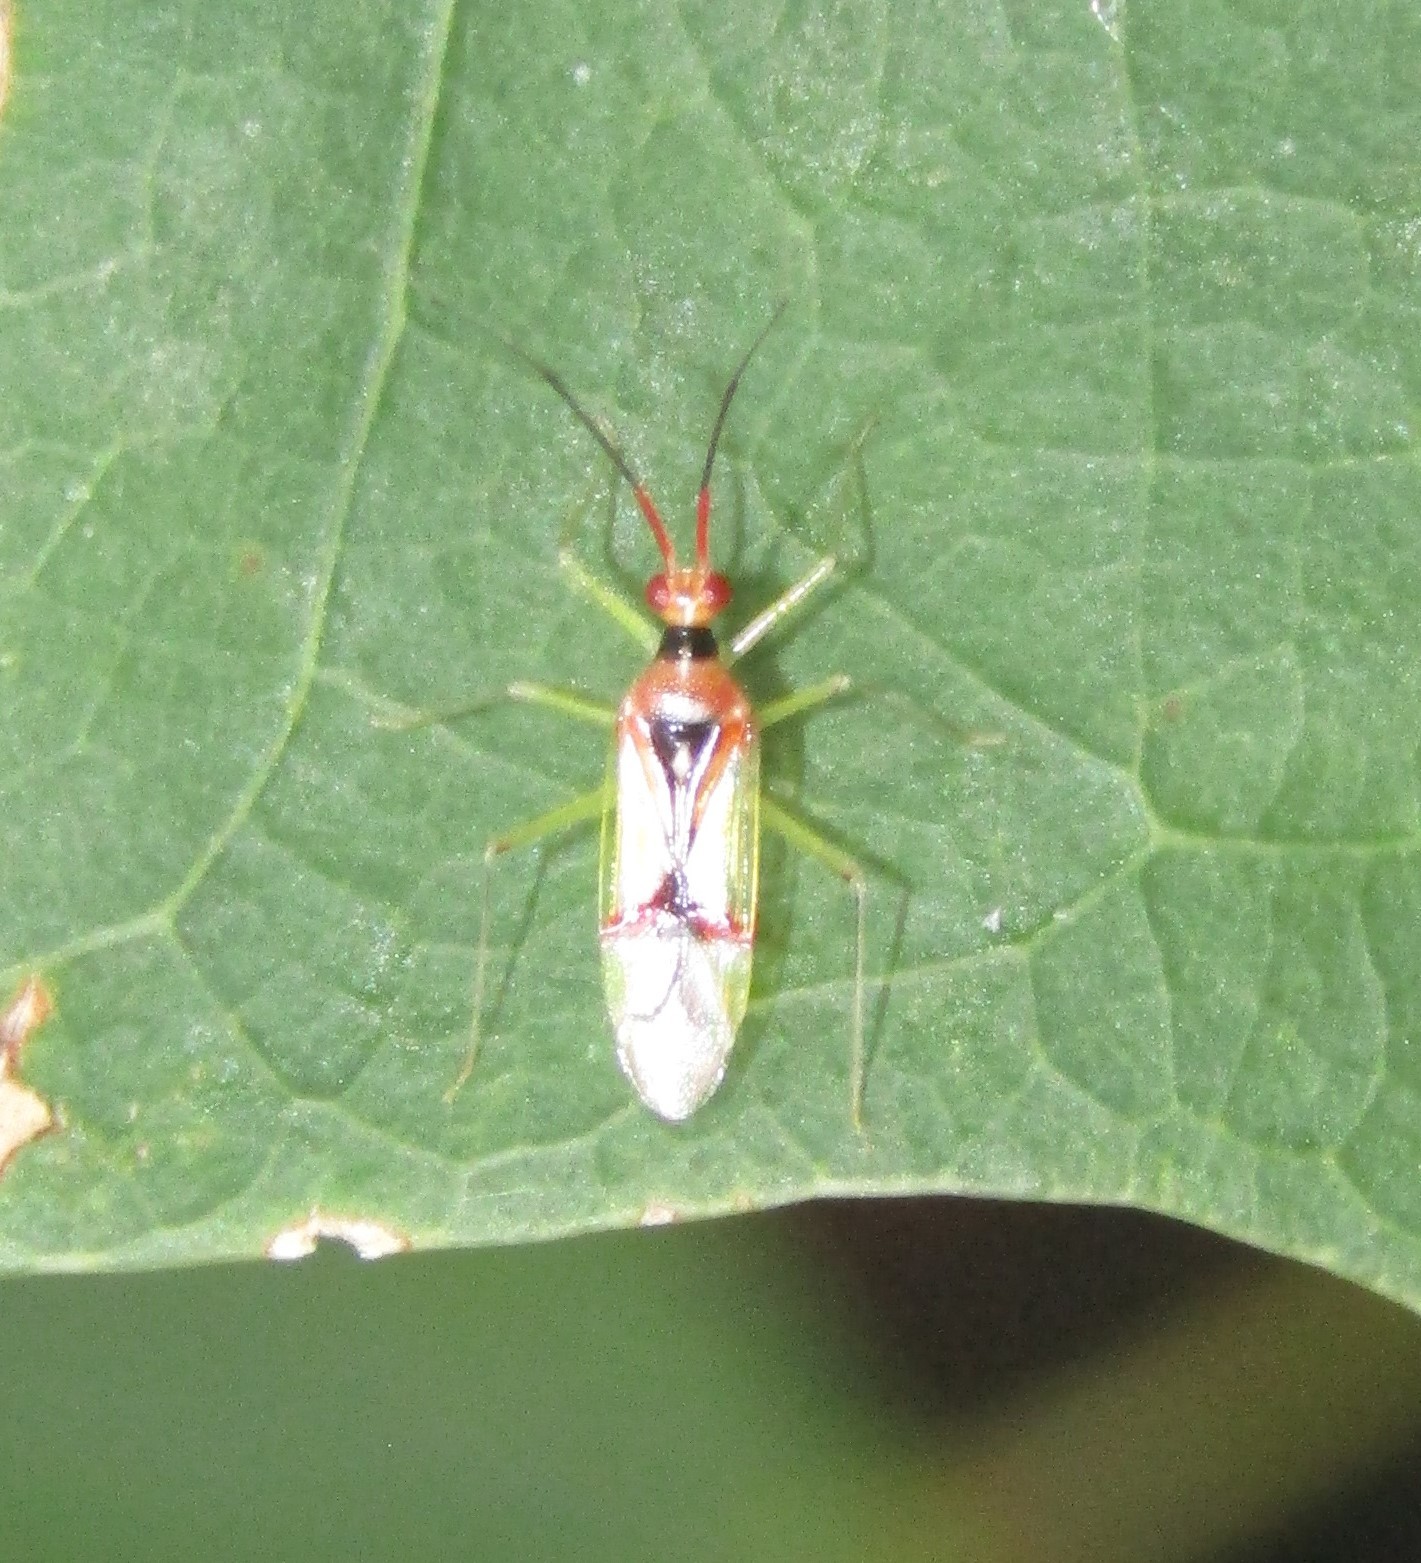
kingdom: Animalia
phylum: Arthropoda
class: Insecta
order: Hemiptera
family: Miridae
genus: Hyaliodes
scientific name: Hyaliodes harti
